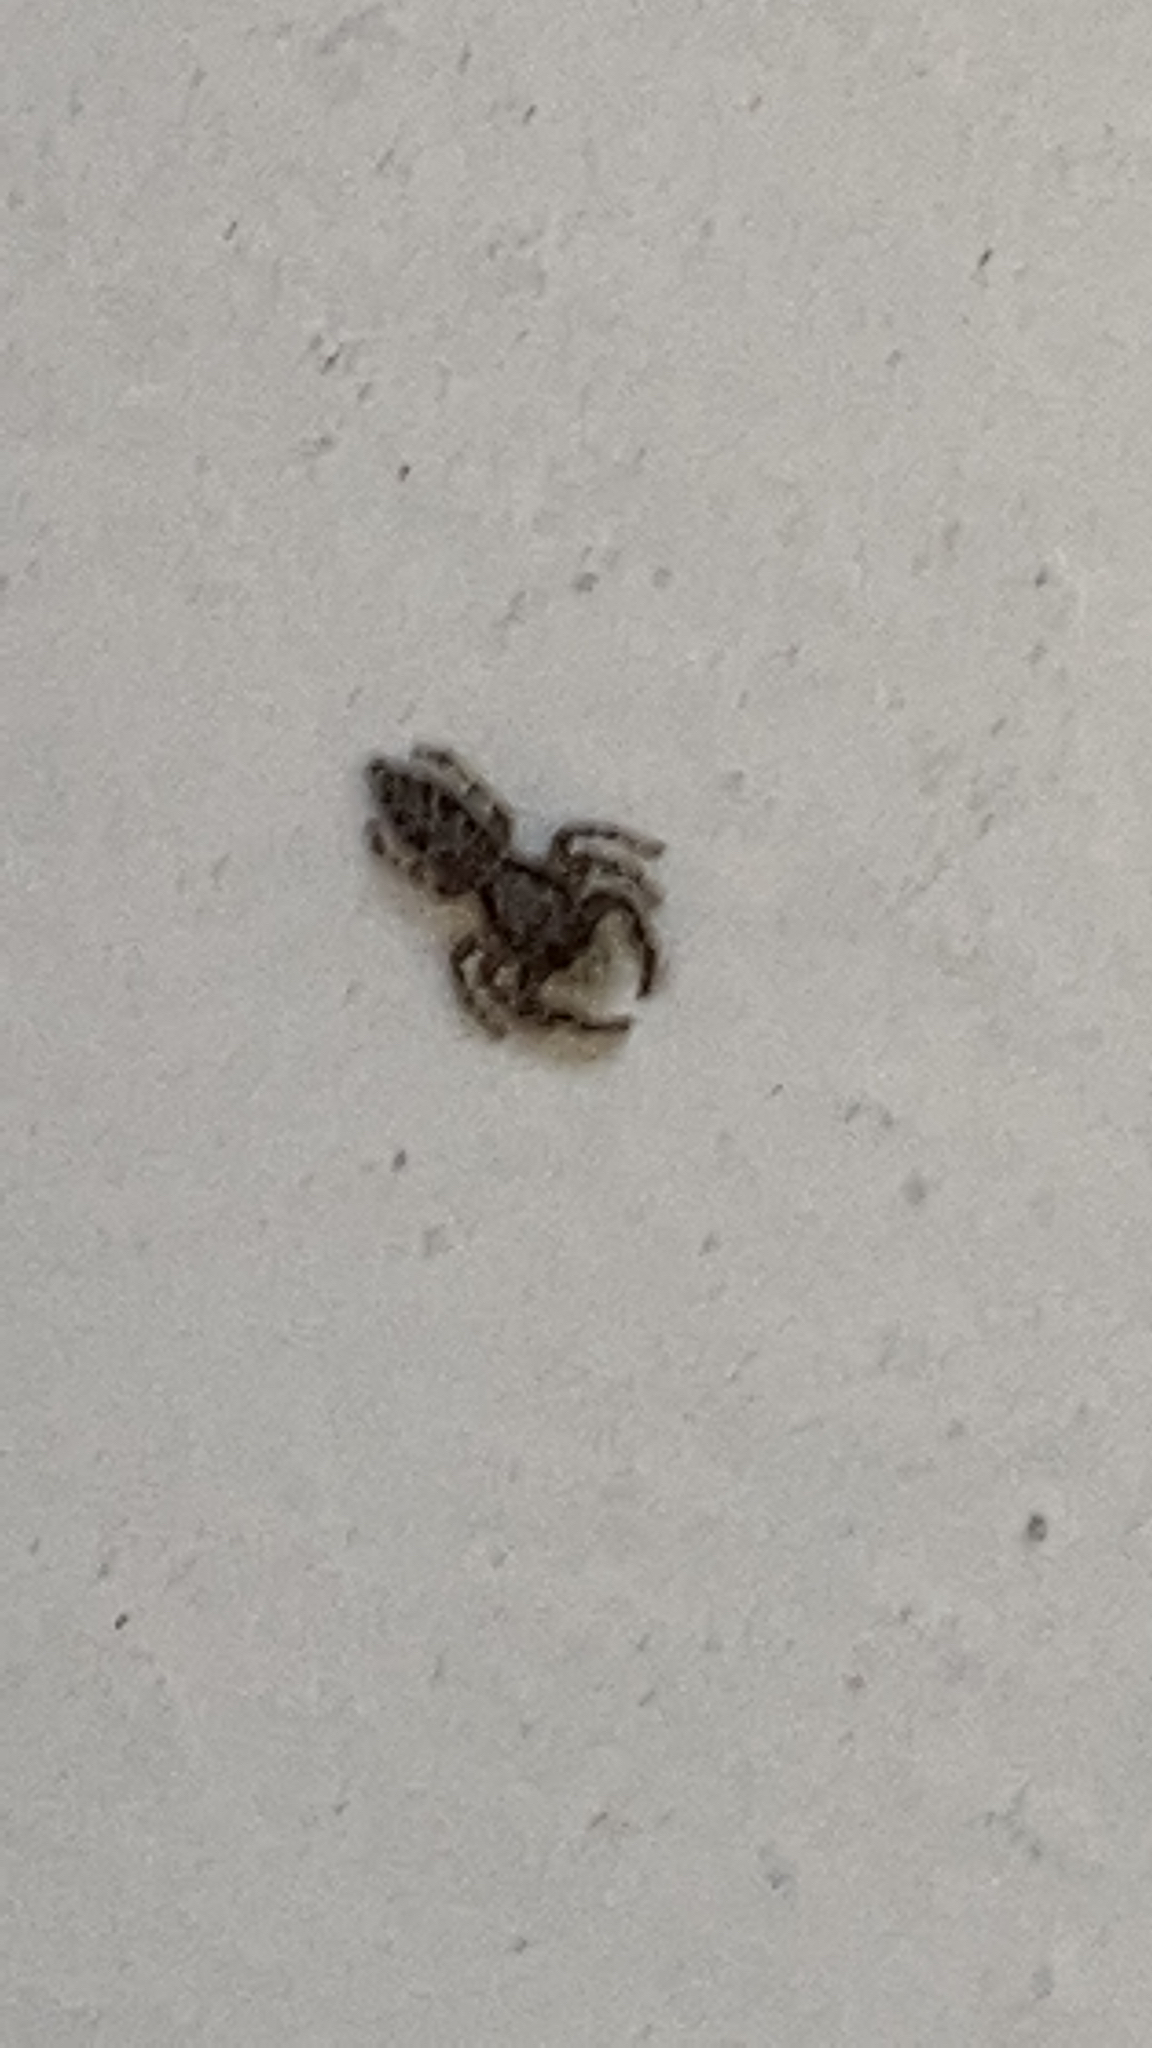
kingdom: Animalia
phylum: Arthropoda
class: Arachnida
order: Araneae
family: Salticidae
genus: Platycryptus
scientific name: Platycryptus californicus
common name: Jumping spiders
